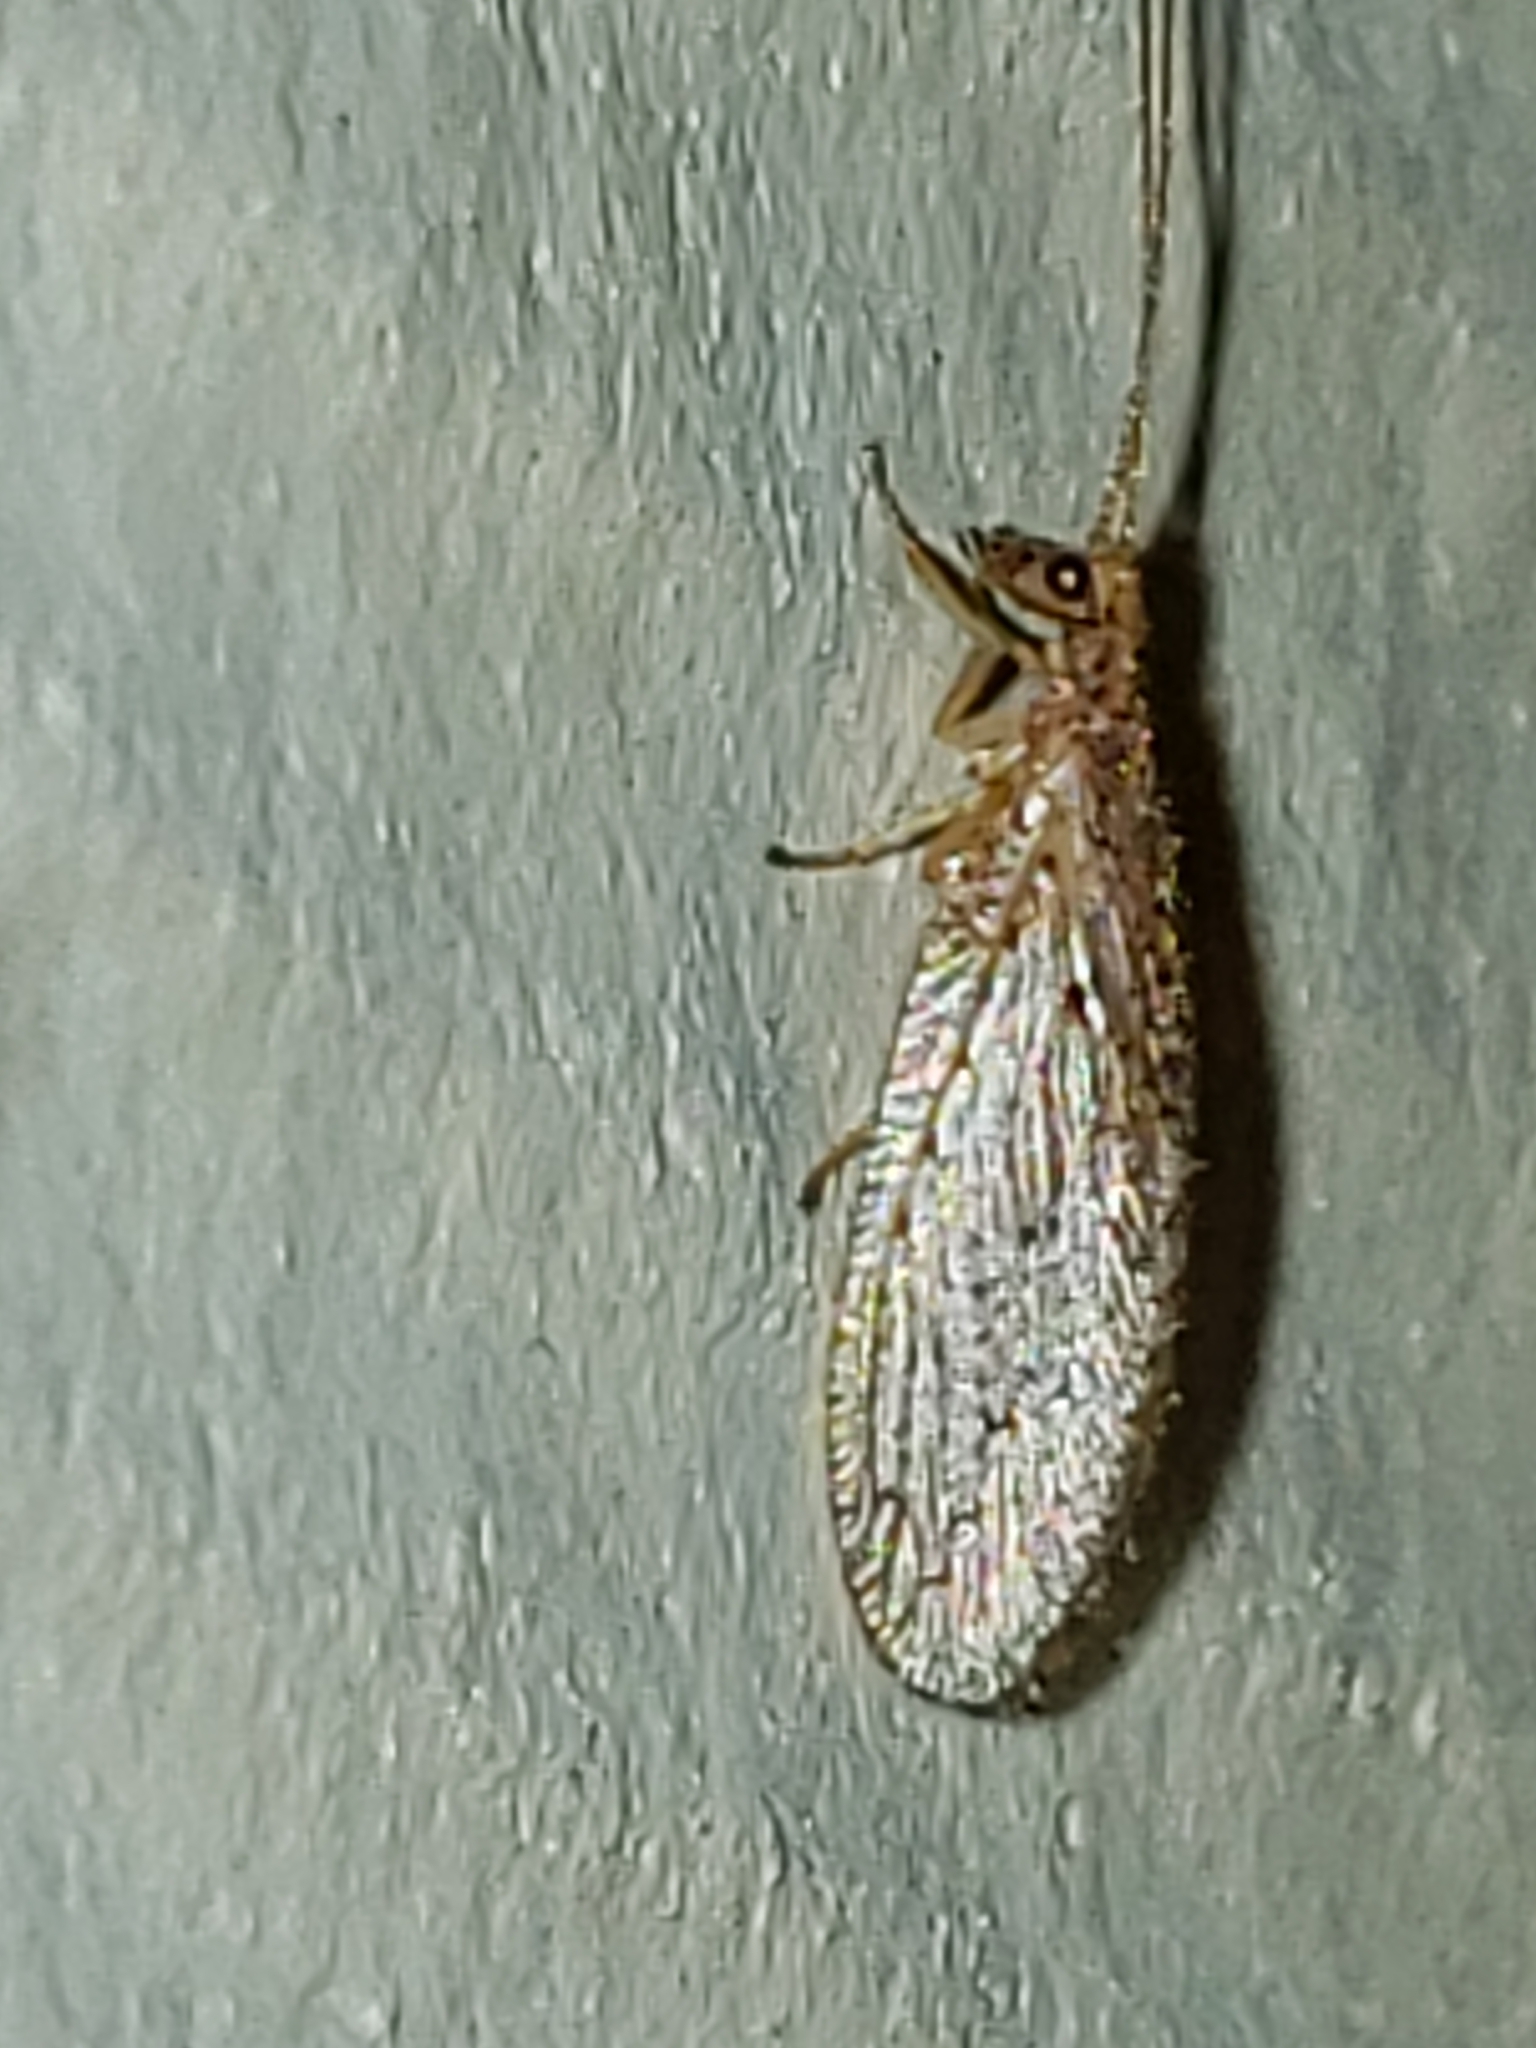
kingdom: Animalia
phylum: Arthropoda
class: Insecta
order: Neuroptera
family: Hemerobiidae
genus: Micromus
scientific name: Micromus subanticus
